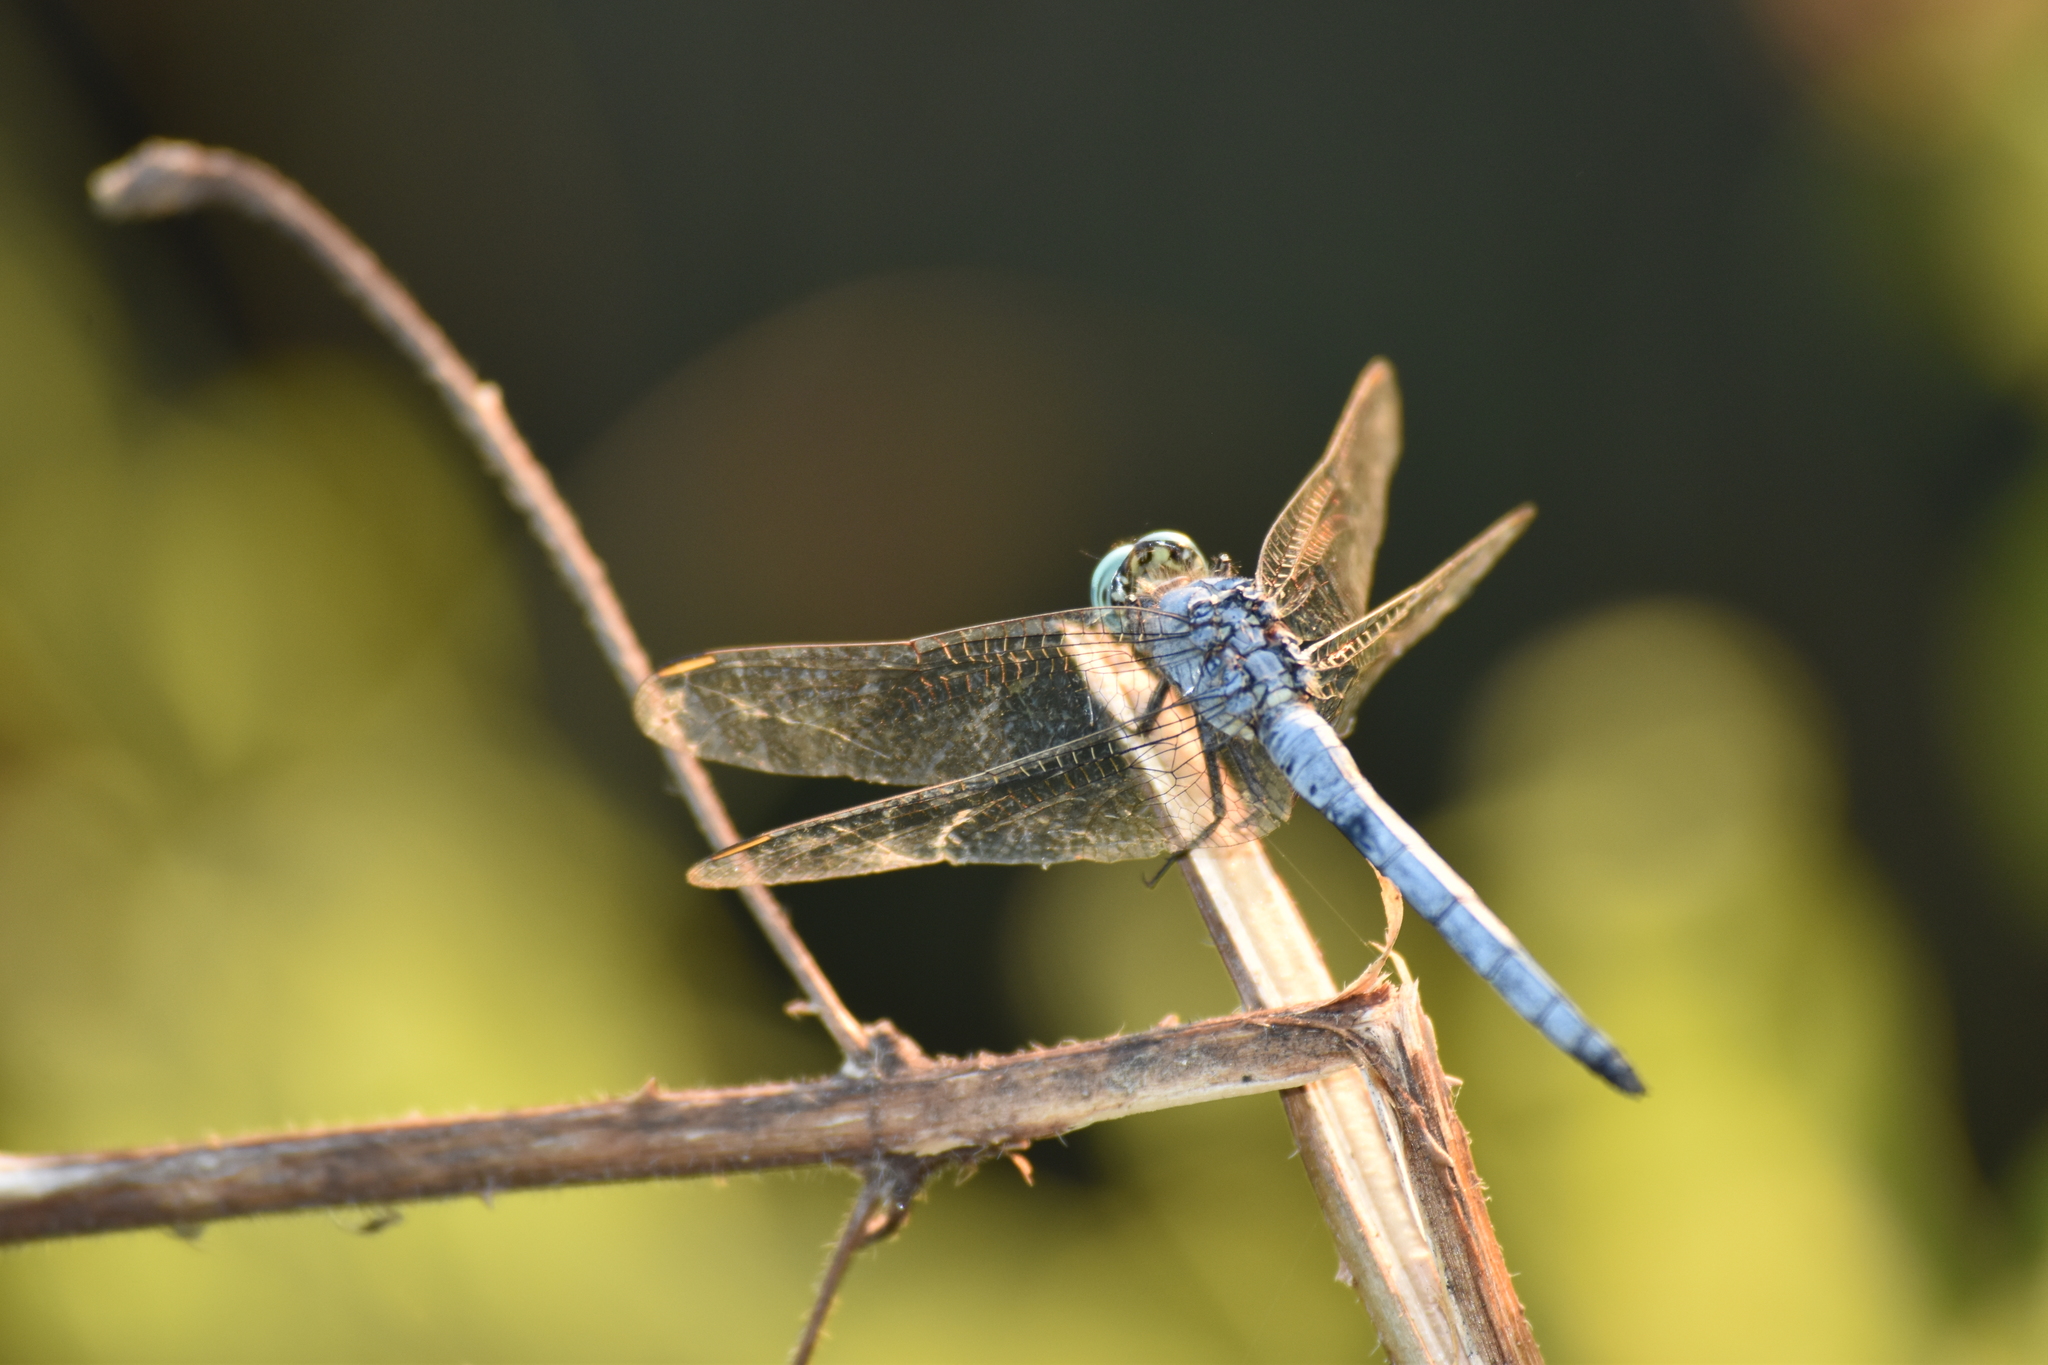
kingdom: Animalia
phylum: Arthropoda
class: Insecta
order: Odonata
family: Libellulidae
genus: Orthetrum
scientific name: Orthetrum luzonicum
